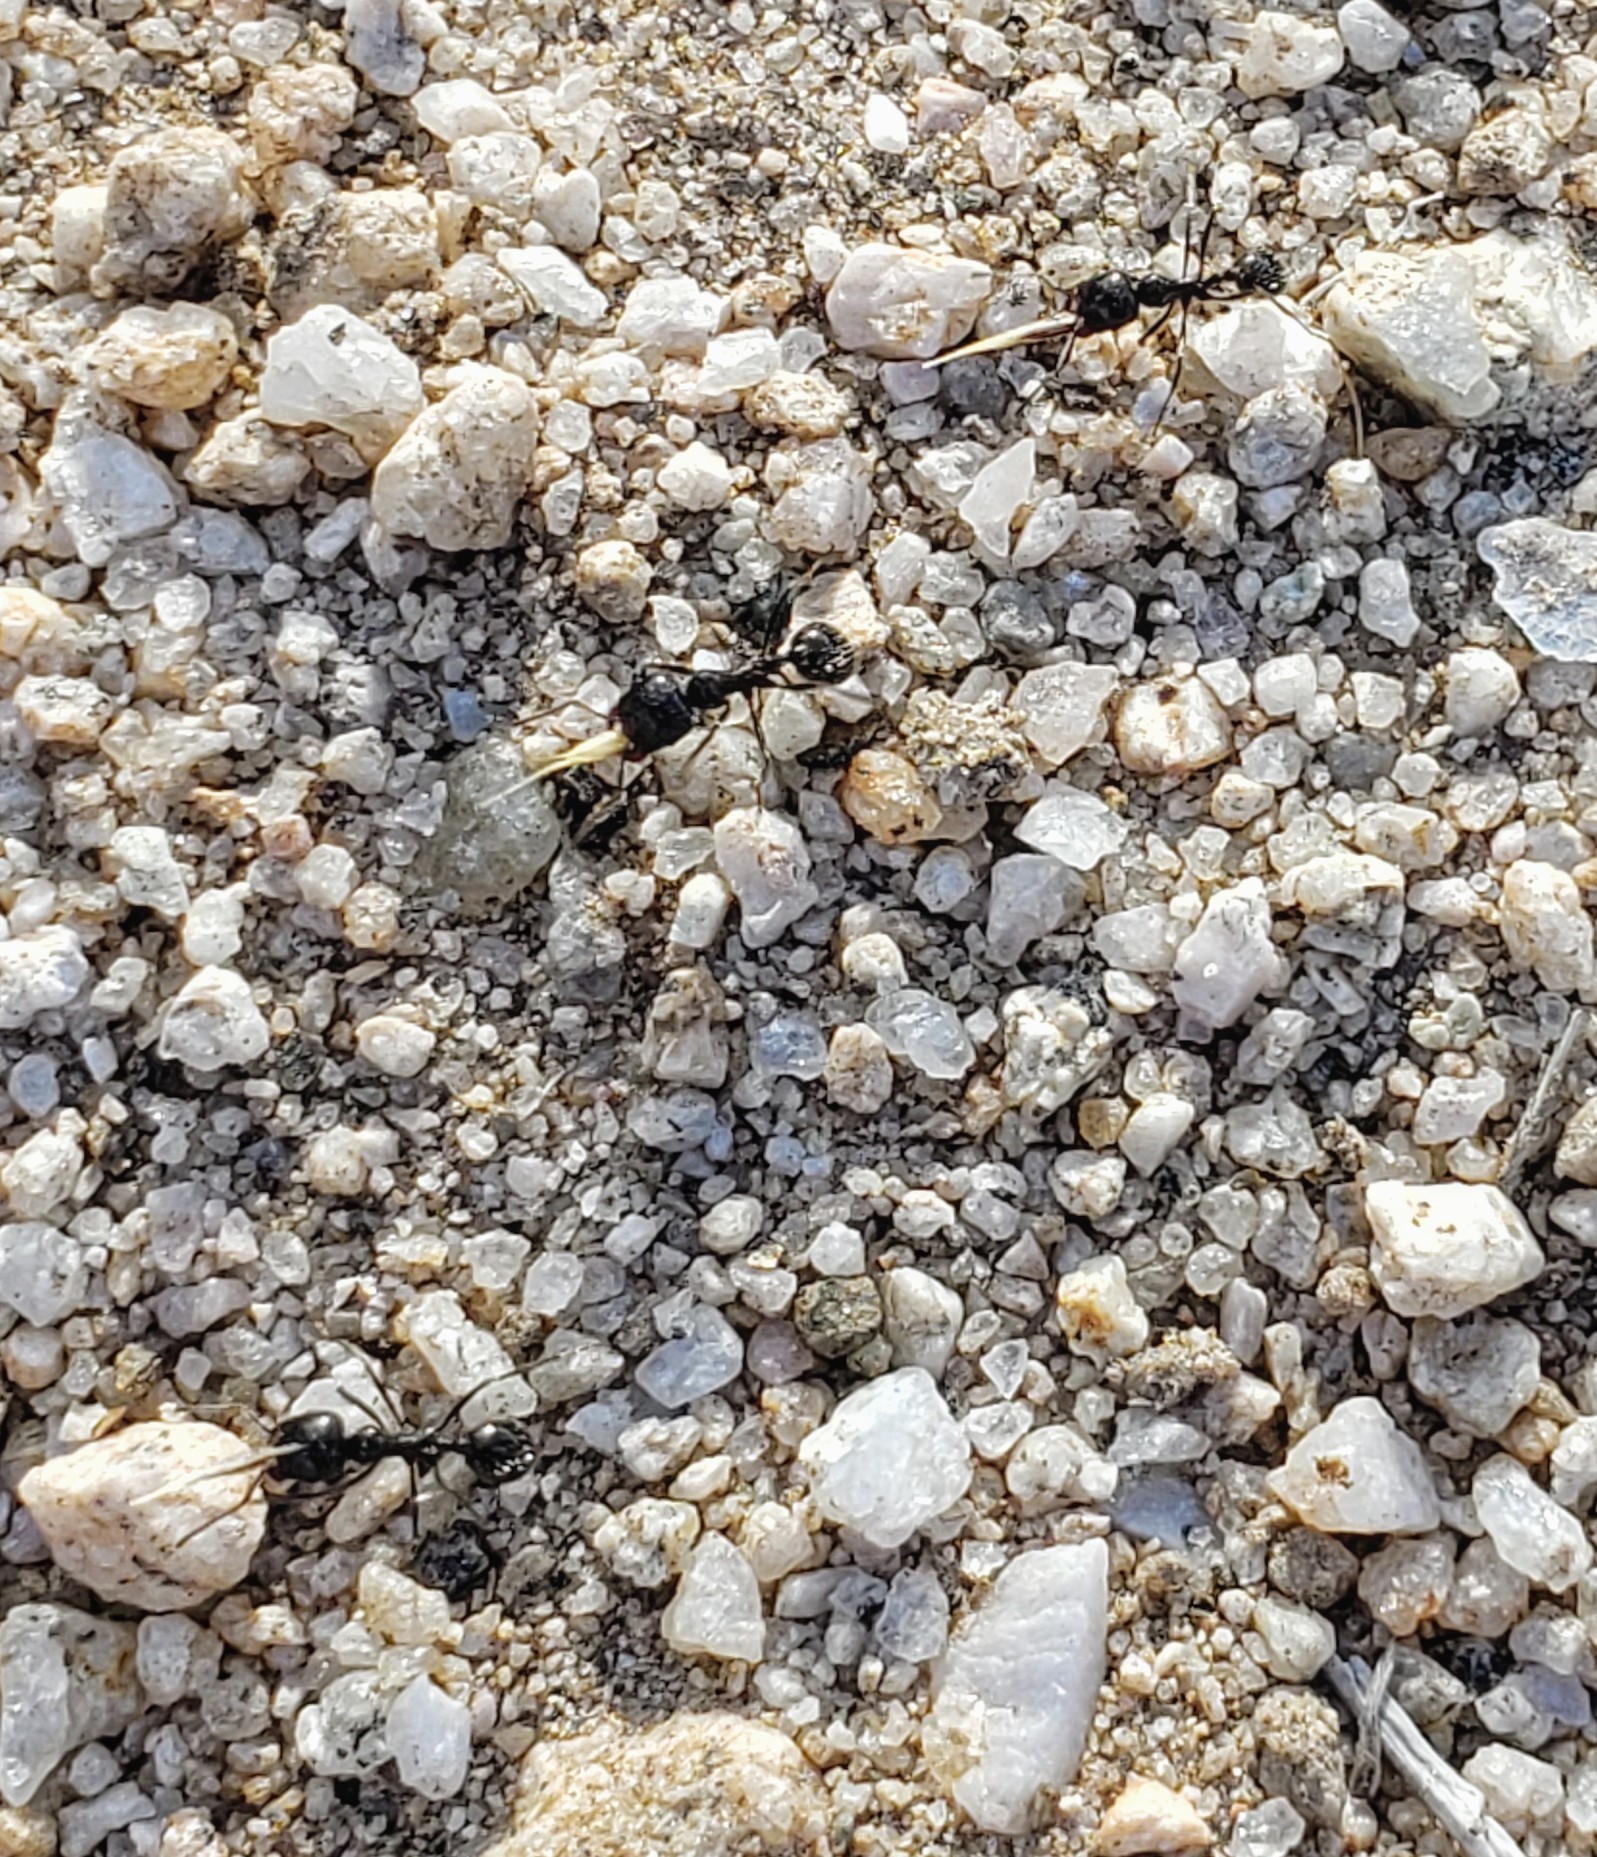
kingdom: Animalia
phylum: Arthropoda
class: Insecta
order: Hymenoptera
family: Formicidae
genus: Messor
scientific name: Messor pergandei
